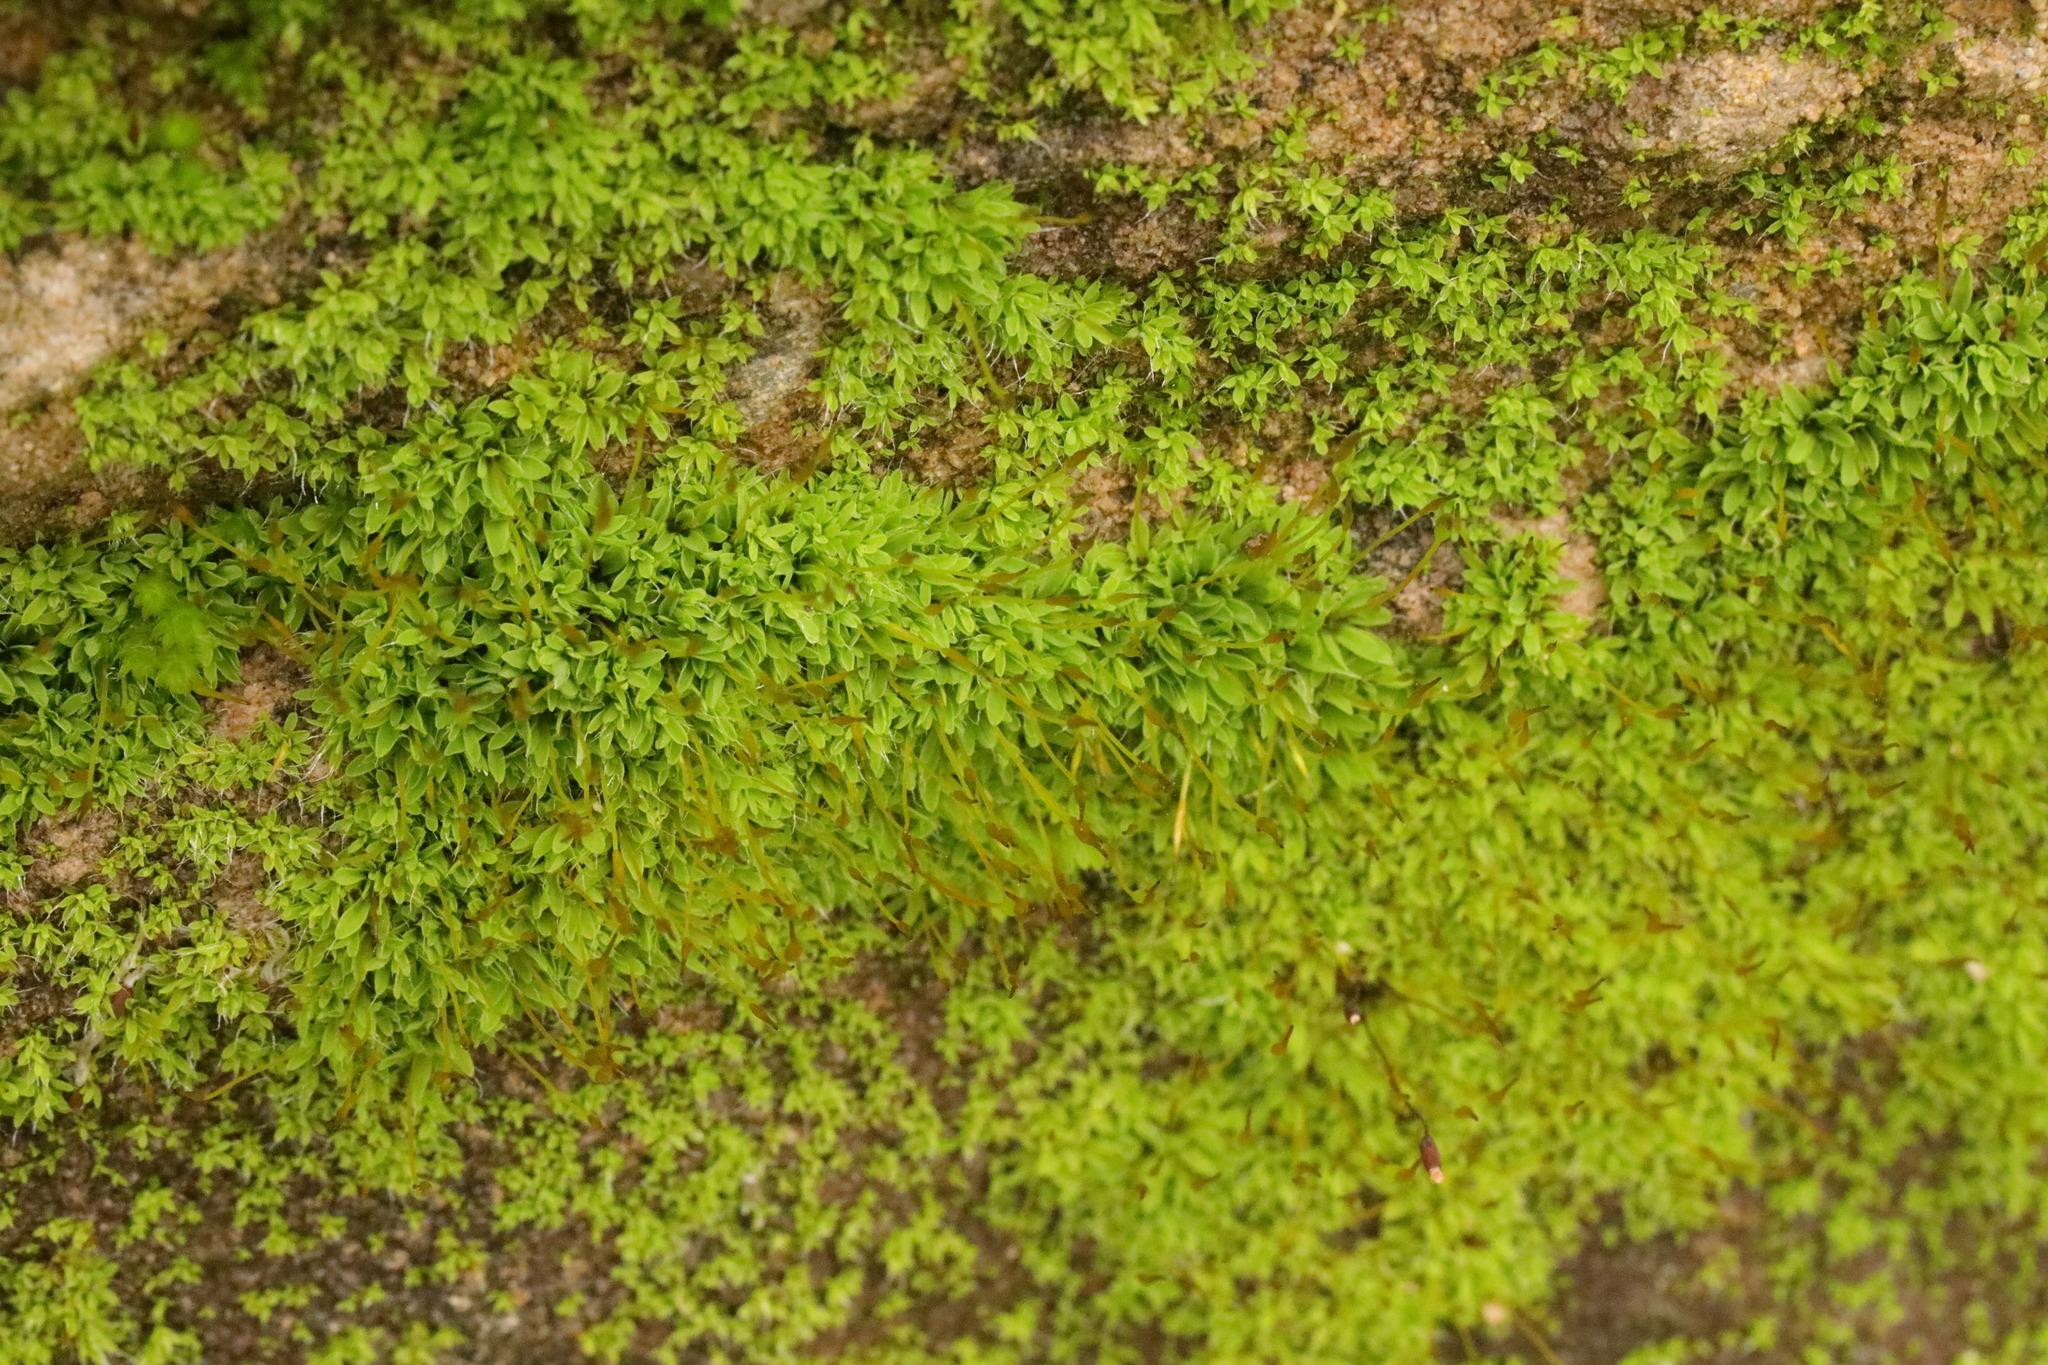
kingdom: Plantae
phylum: Bryophyta
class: Bryopsida
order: Pottiales
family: Pottiaceae
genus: Tortula
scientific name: Tortula muralis
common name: Wall screw-moss
